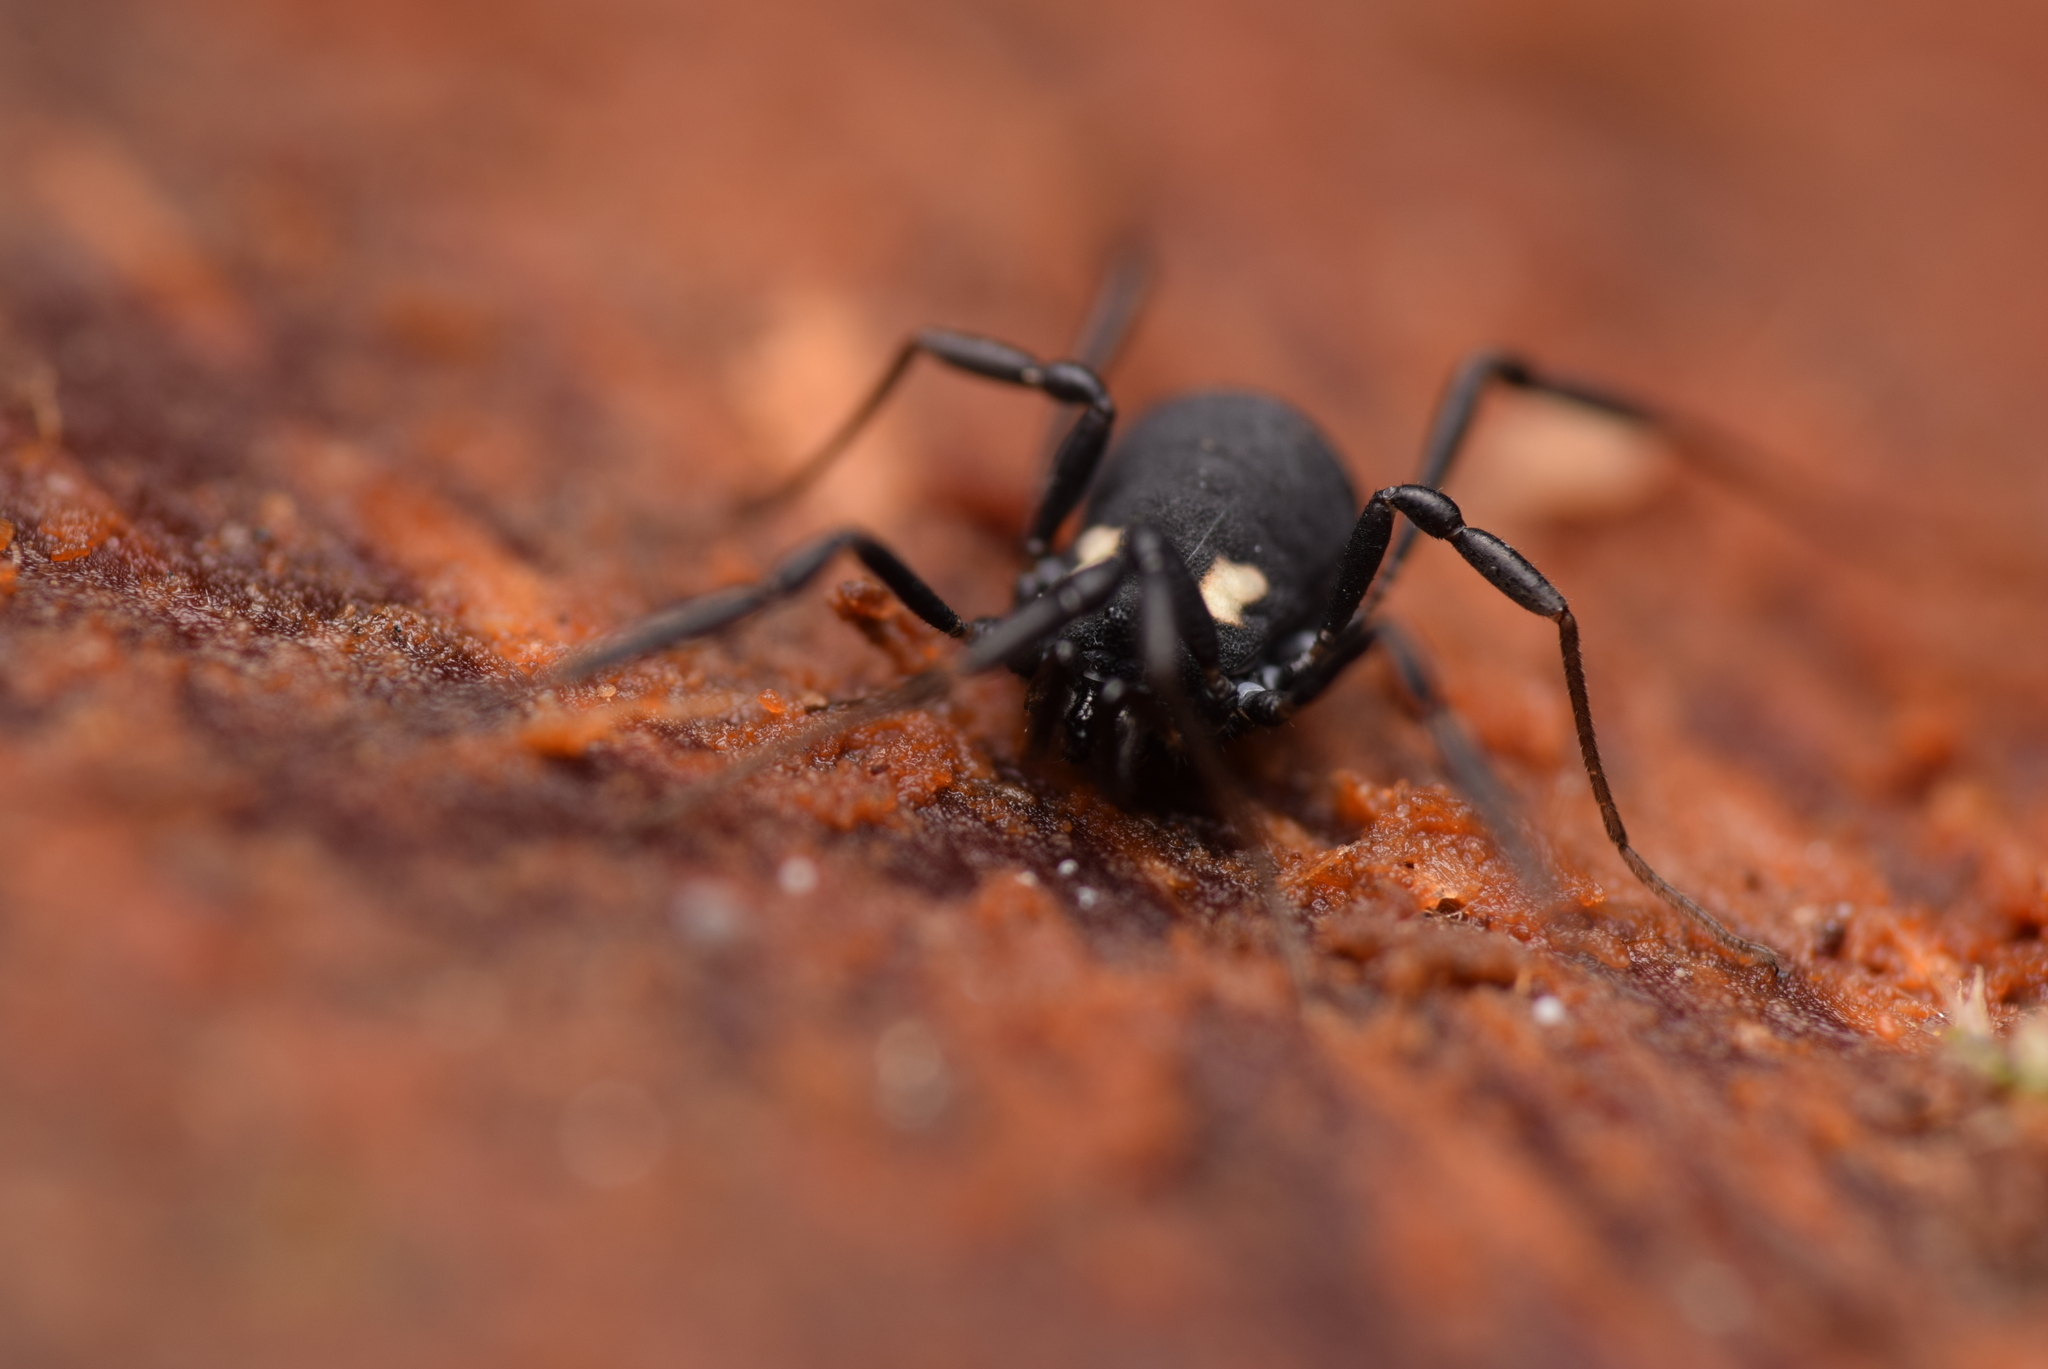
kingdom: Animalia
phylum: Arthropoda
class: Arachnida
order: Opiliones
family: Nemastomatidae
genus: Nemastoma
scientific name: Nemastoma bimaculatum
